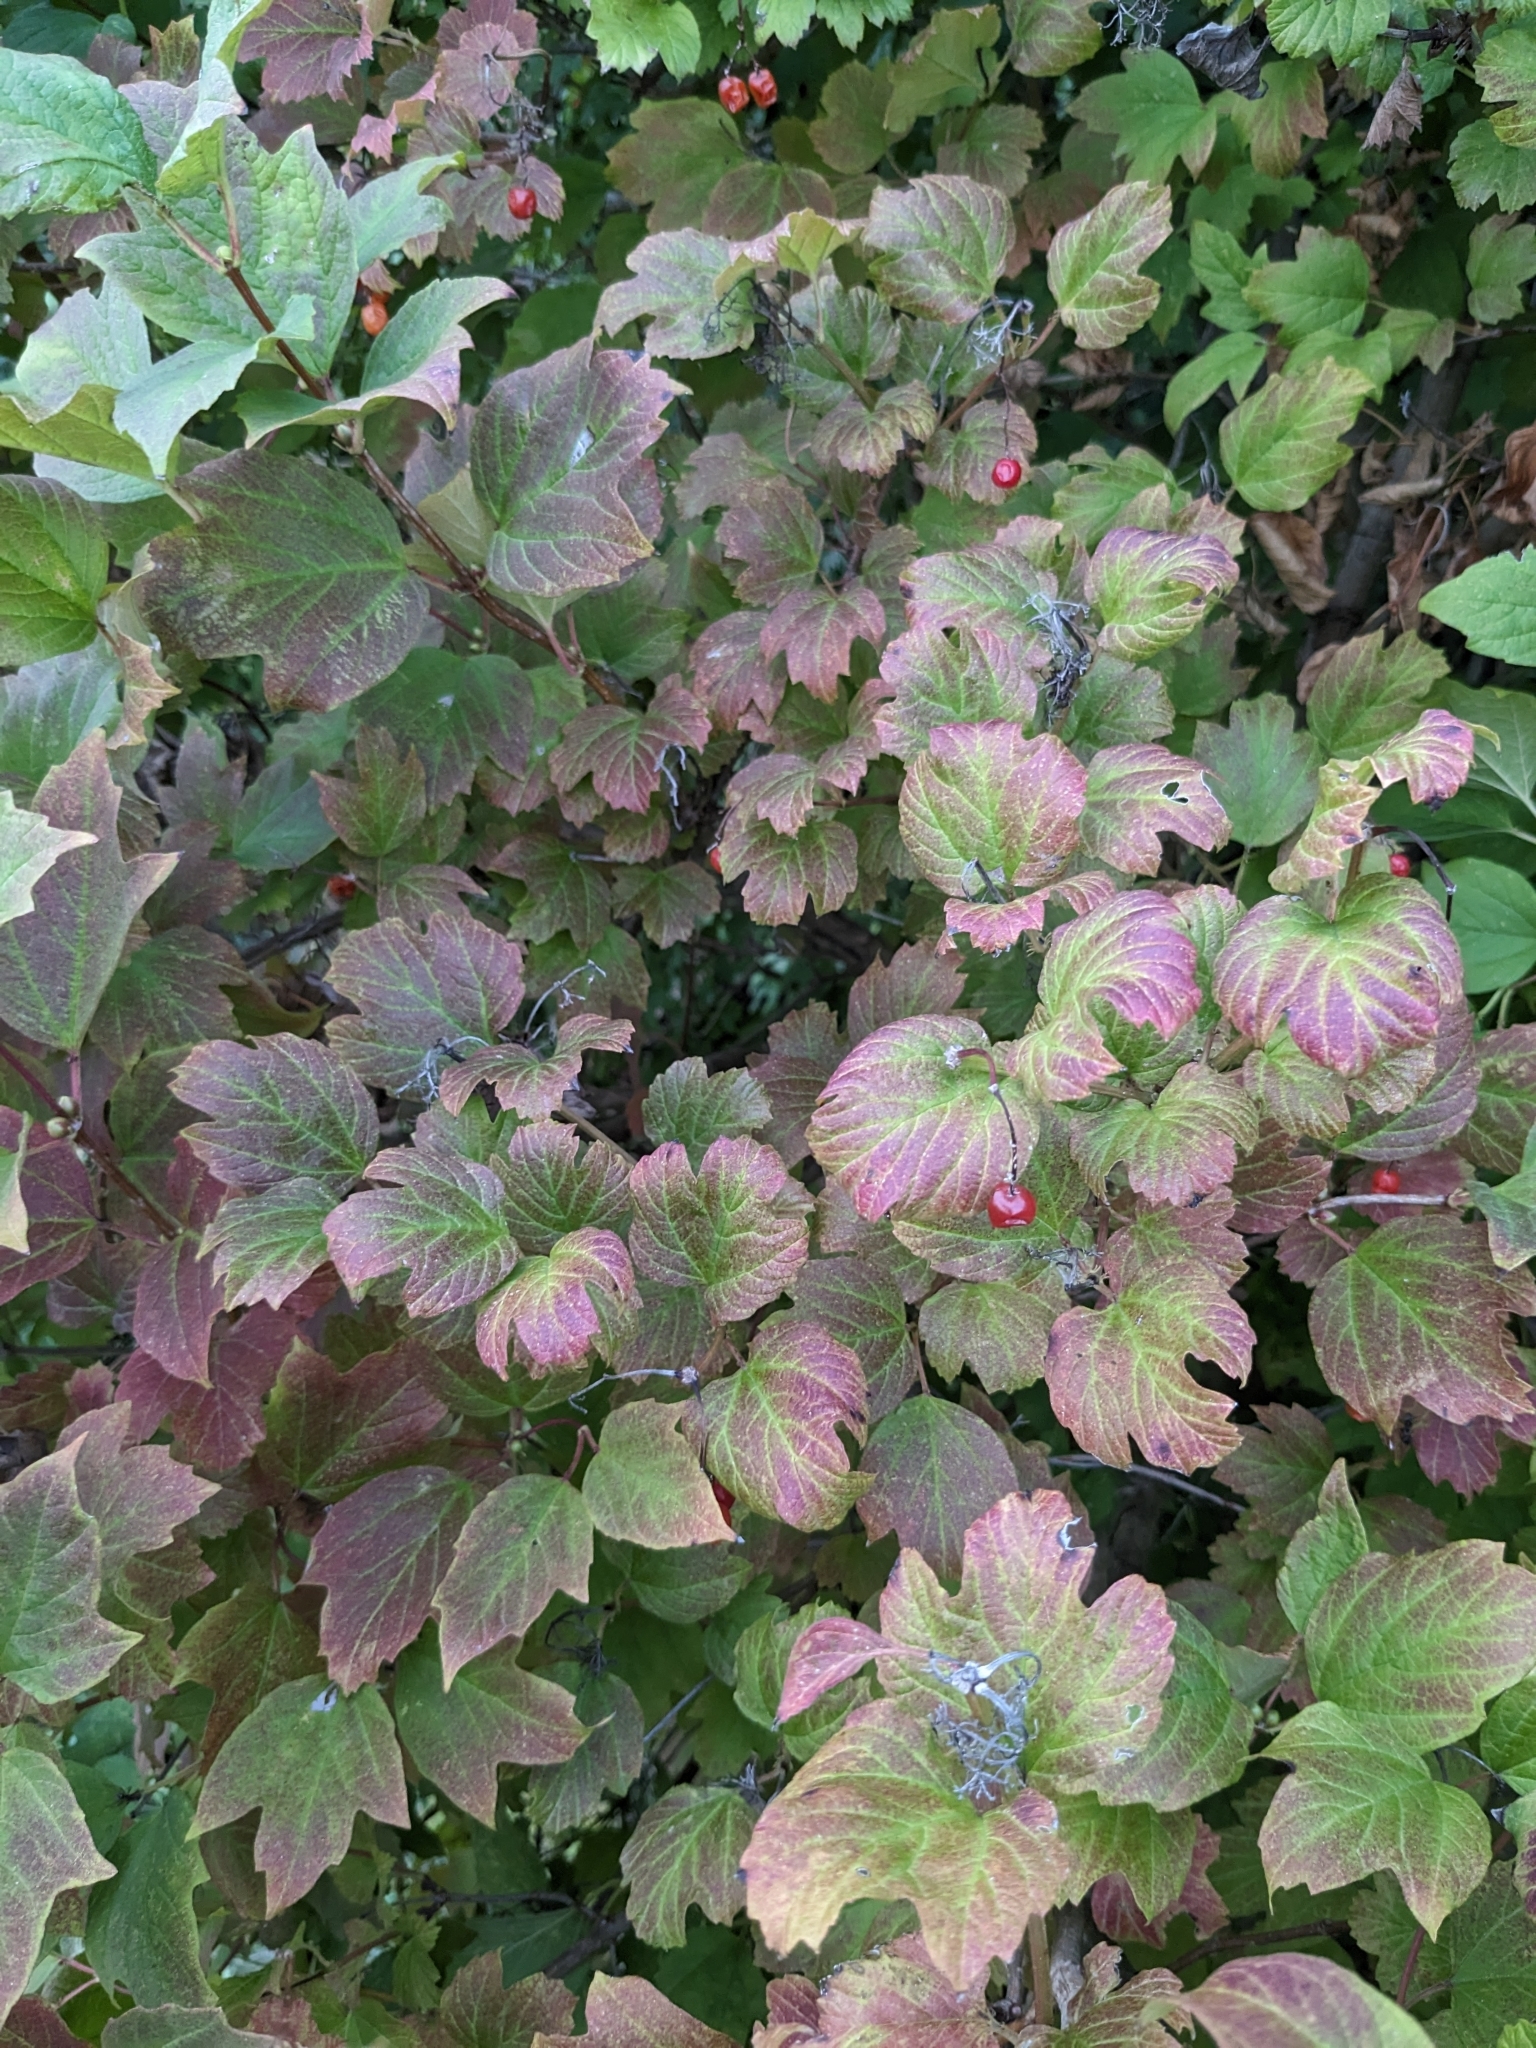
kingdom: Plantae
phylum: Tracheophyta
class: Magnoliopsida
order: Dipsacales
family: Viburnaceae
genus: Viburnum
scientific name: Viburnum opulus
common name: Guelder-rose
